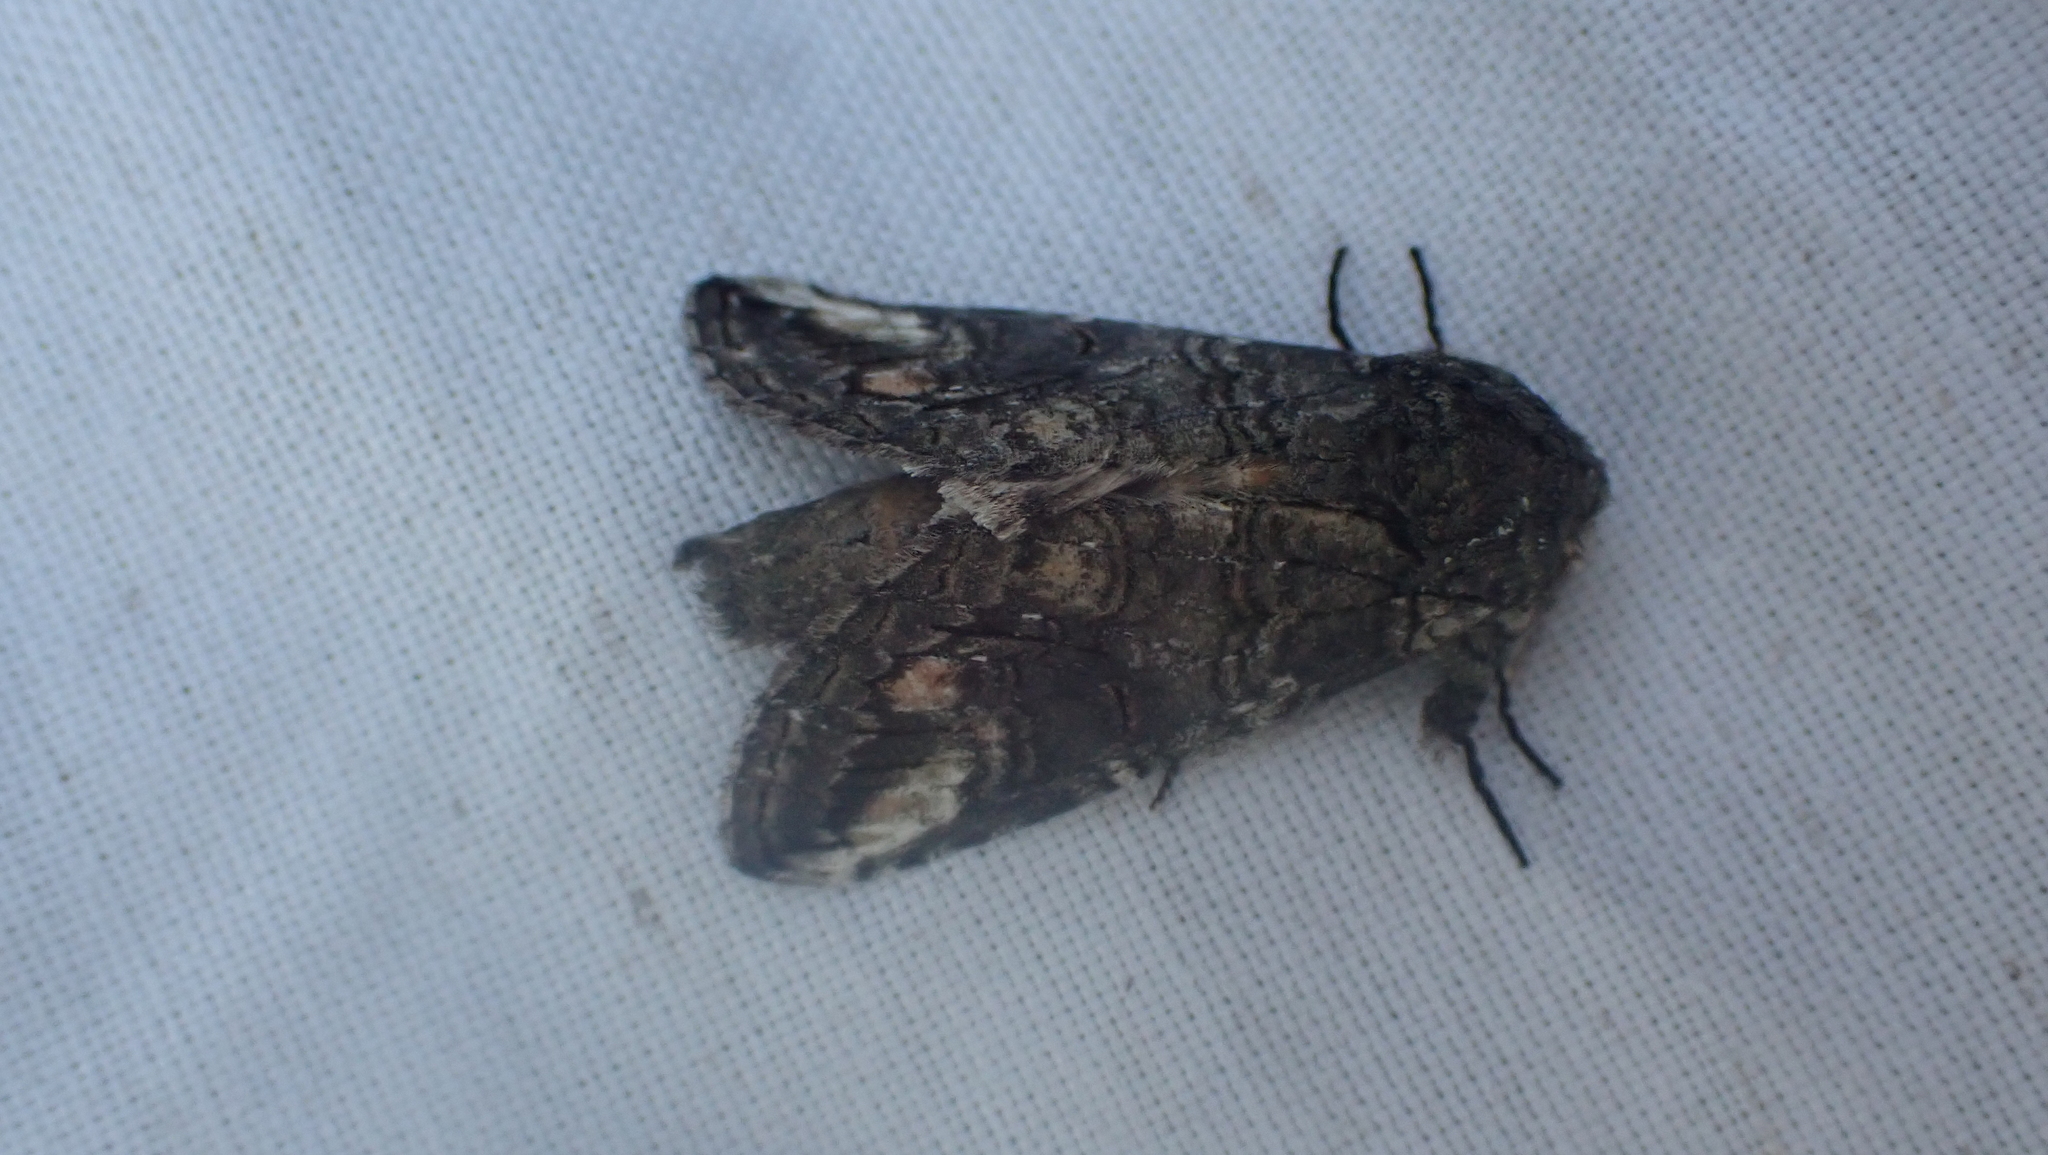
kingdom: Animalia
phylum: Arthropoda
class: Insecta
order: Lepidoptera
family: Notodontidae
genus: Heterocampa
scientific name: Heterocampa obliqua
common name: Oblique heterocampa
